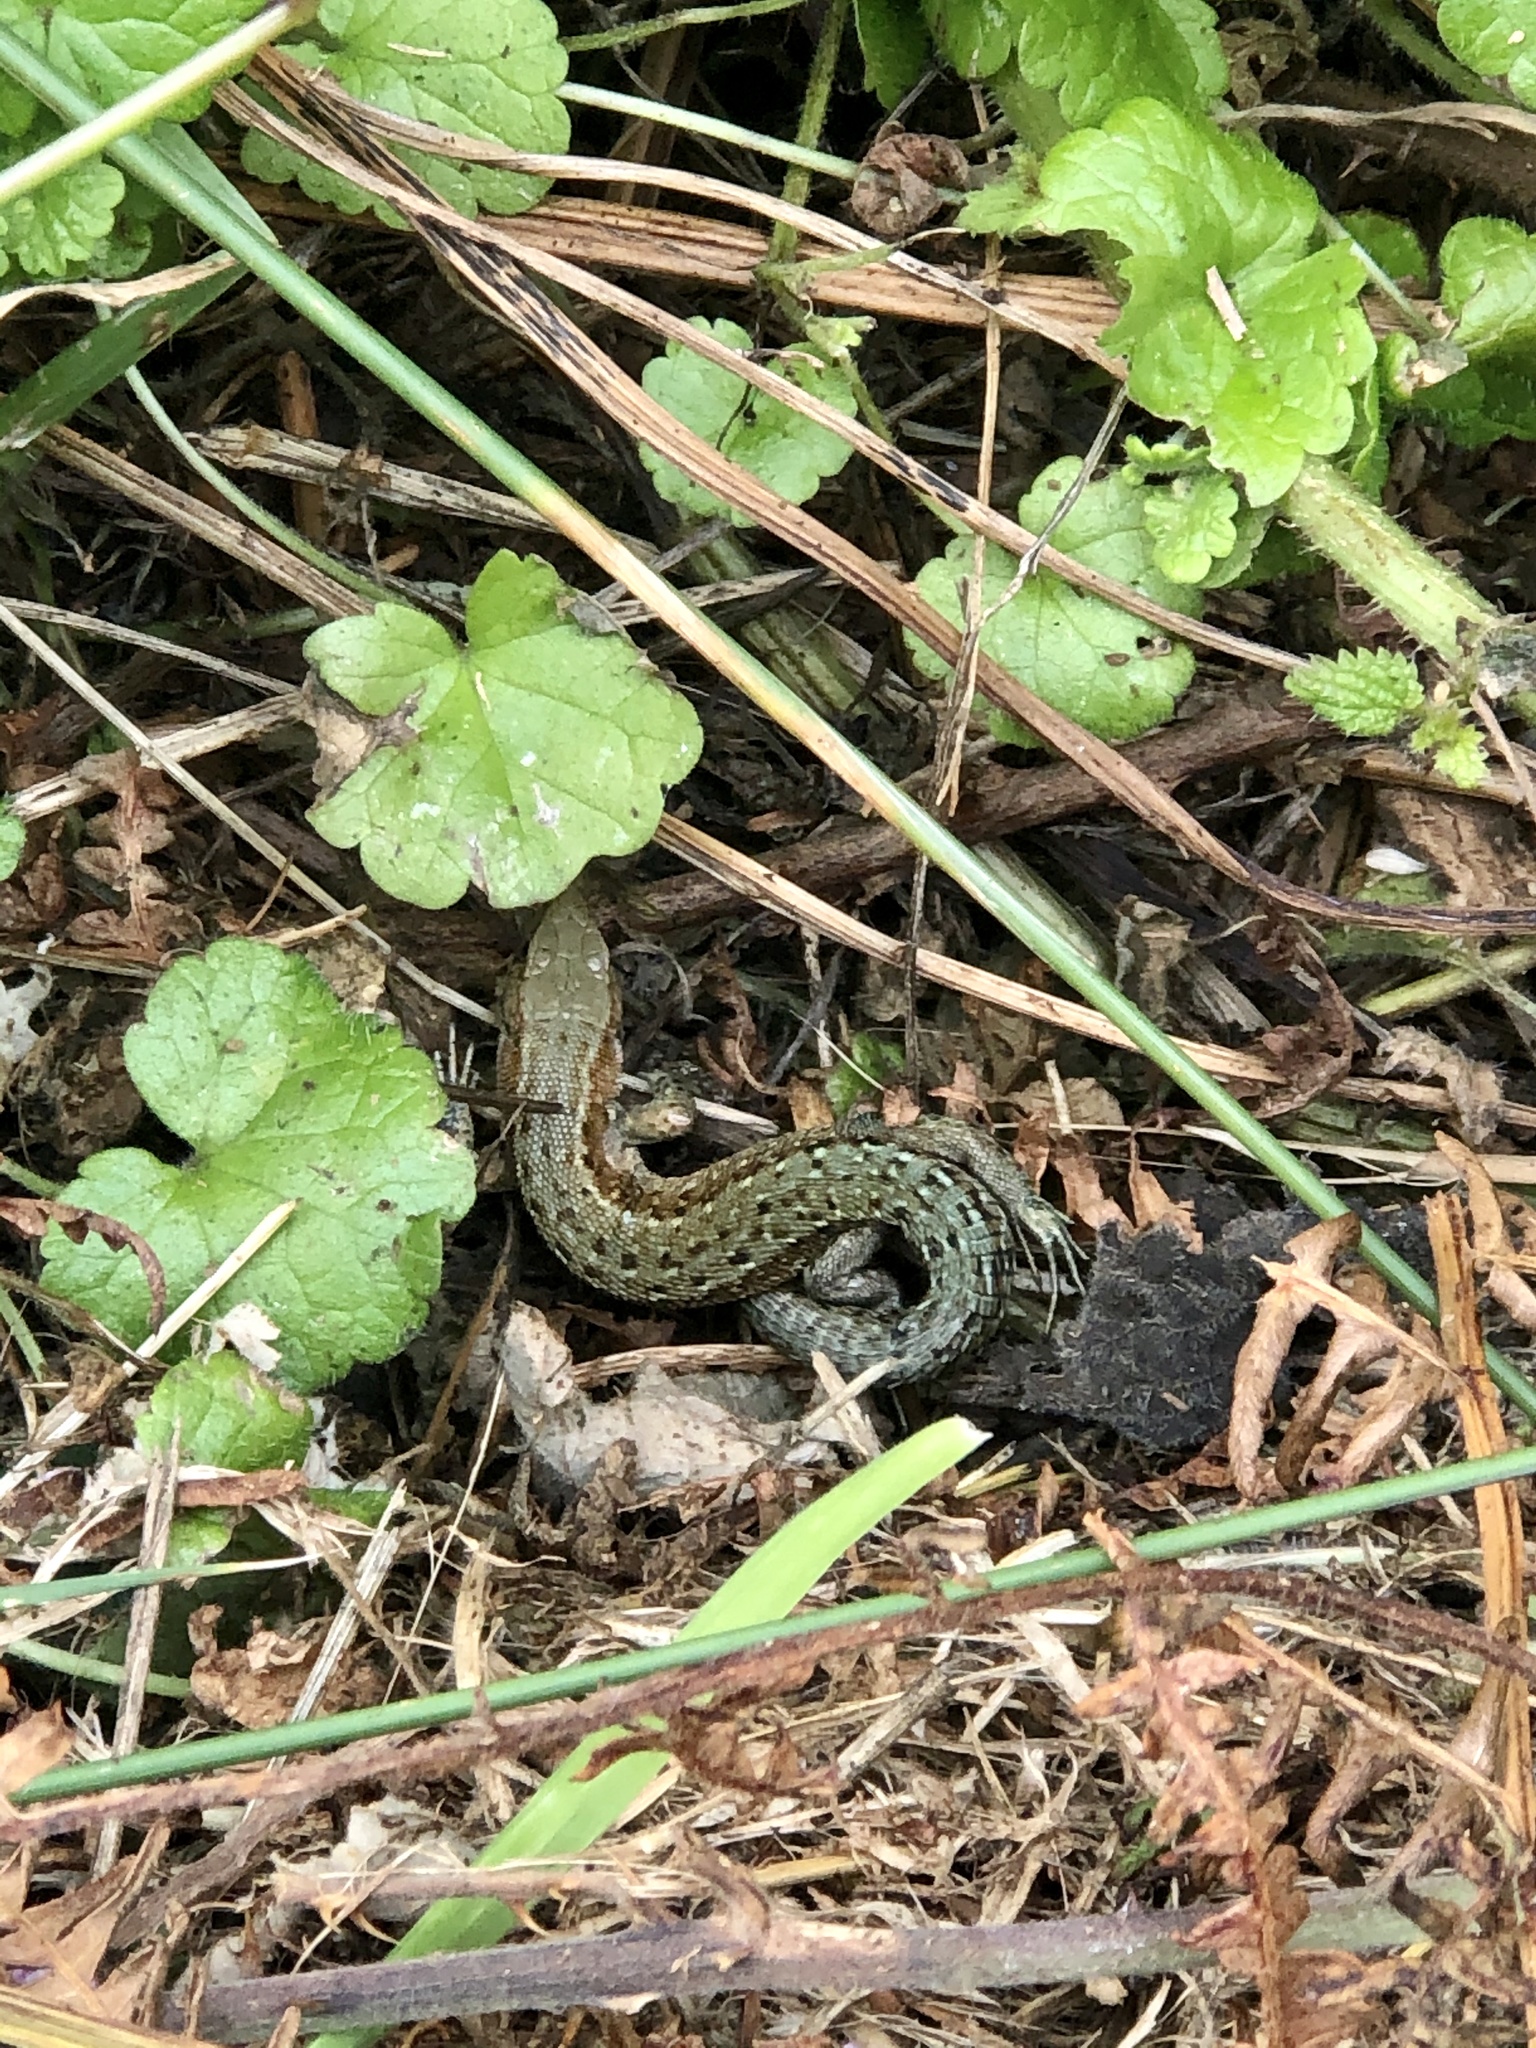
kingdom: Animalia
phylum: Chordata
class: Squamata
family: Lacertidae
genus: Zootoca
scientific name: Zootoca vivipara
